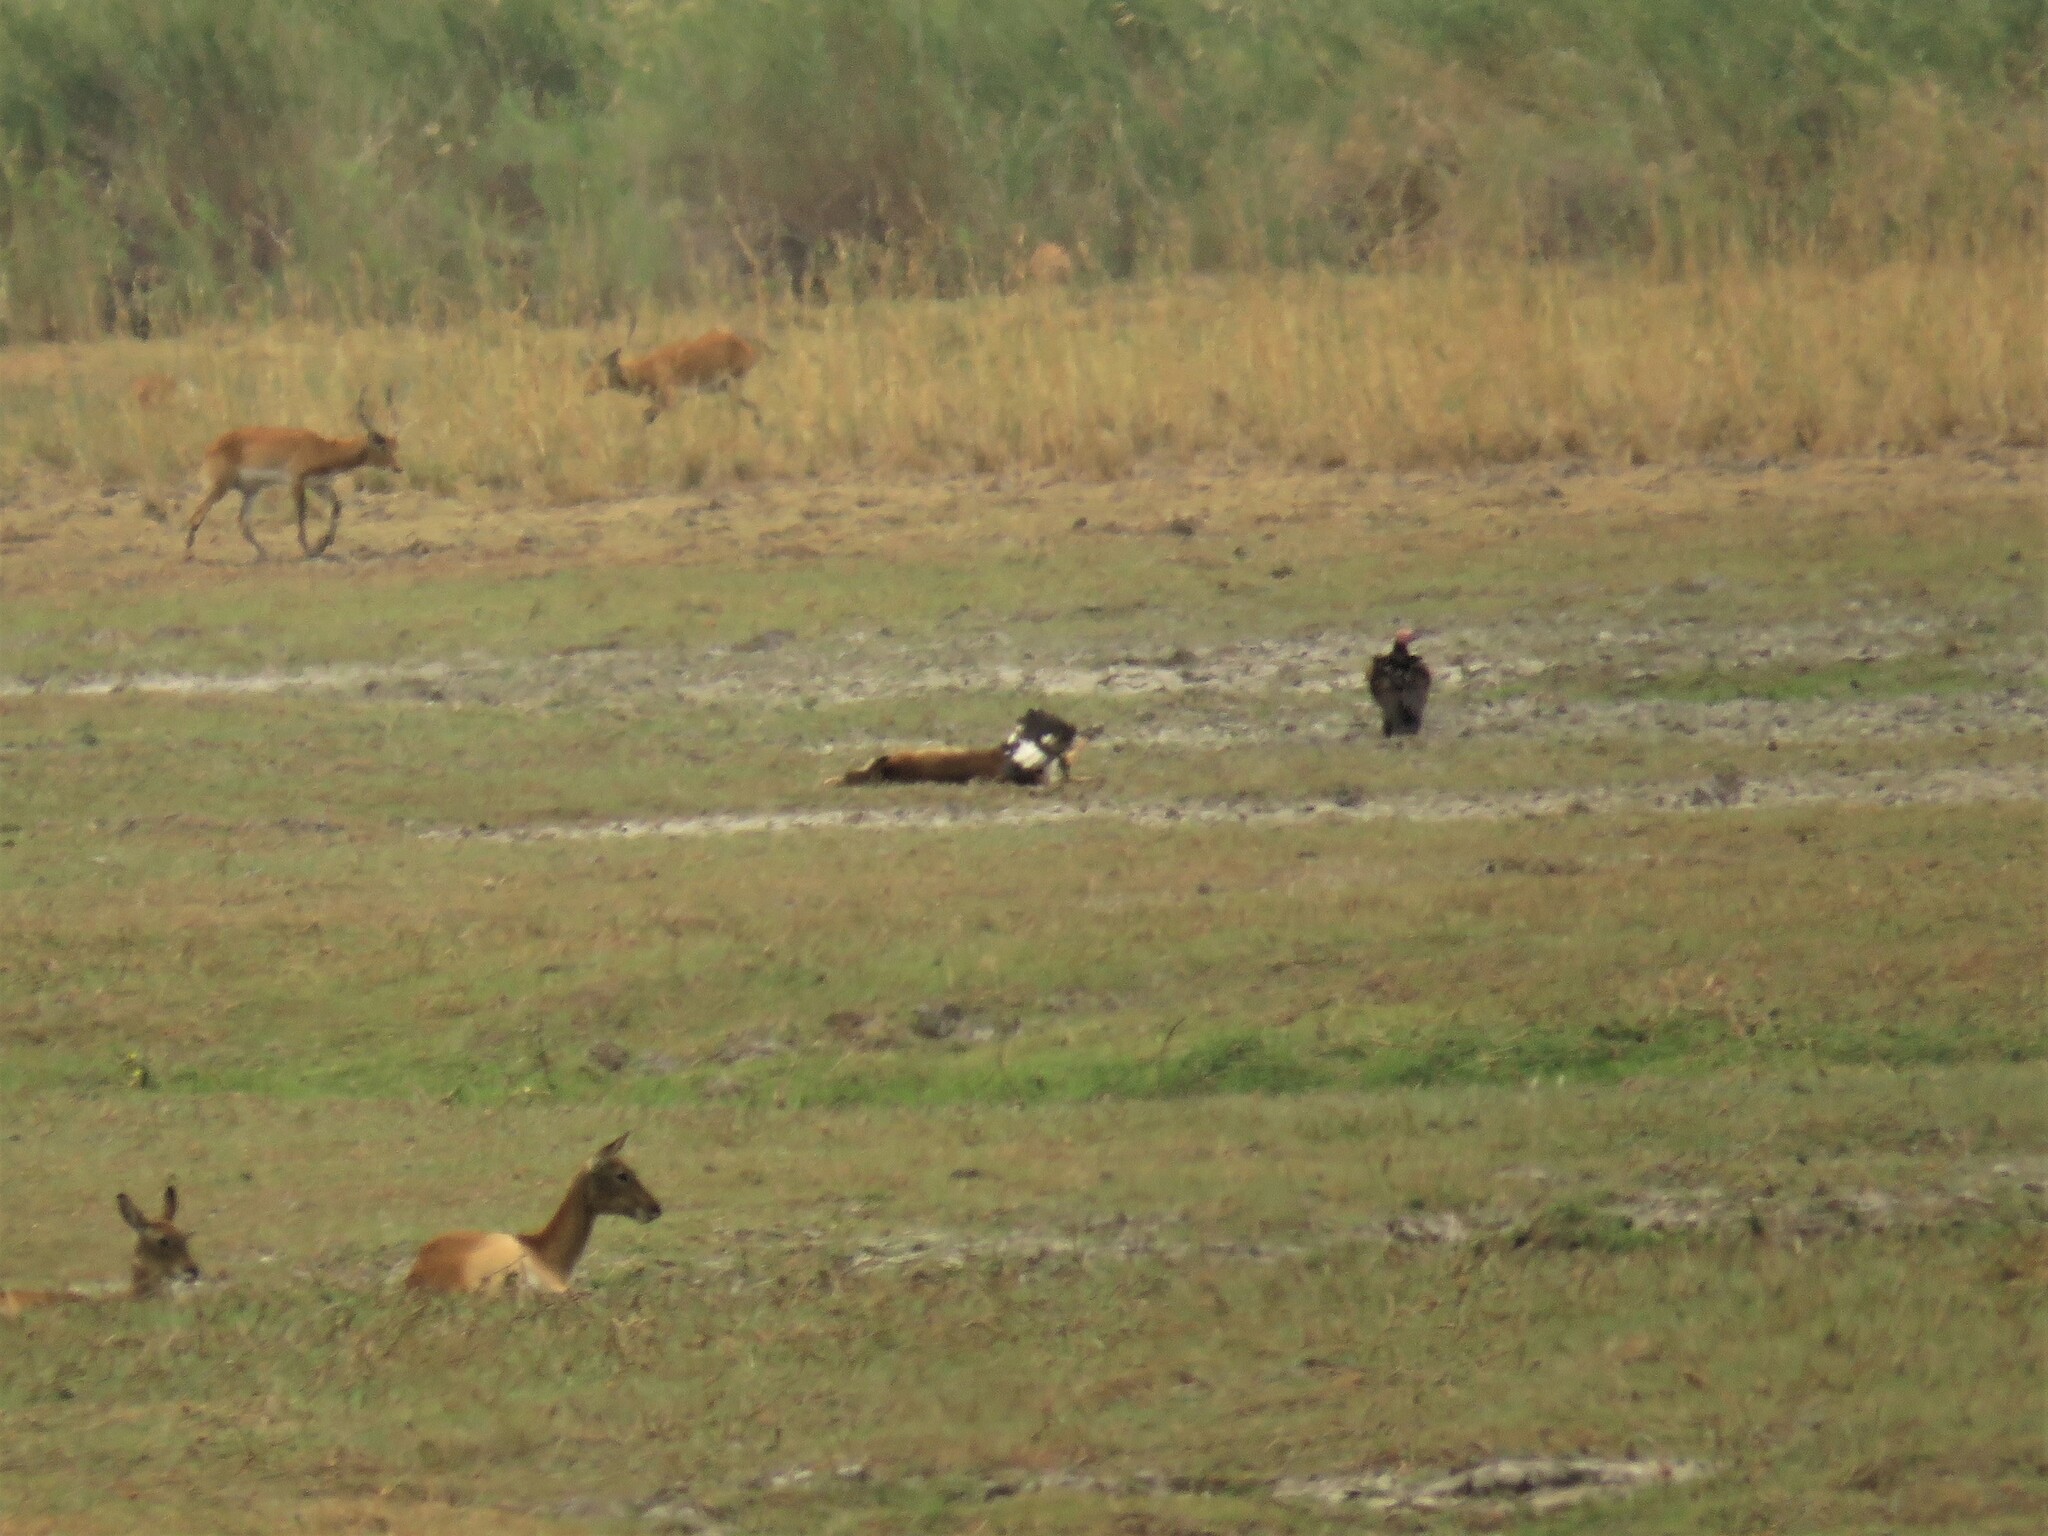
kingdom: Animalia
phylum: Chordata
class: Aves
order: Accipitriformes
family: Accipitridae
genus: Trigonoceps
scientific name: Trigonoceps occipitalis
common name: White-headed vulture
